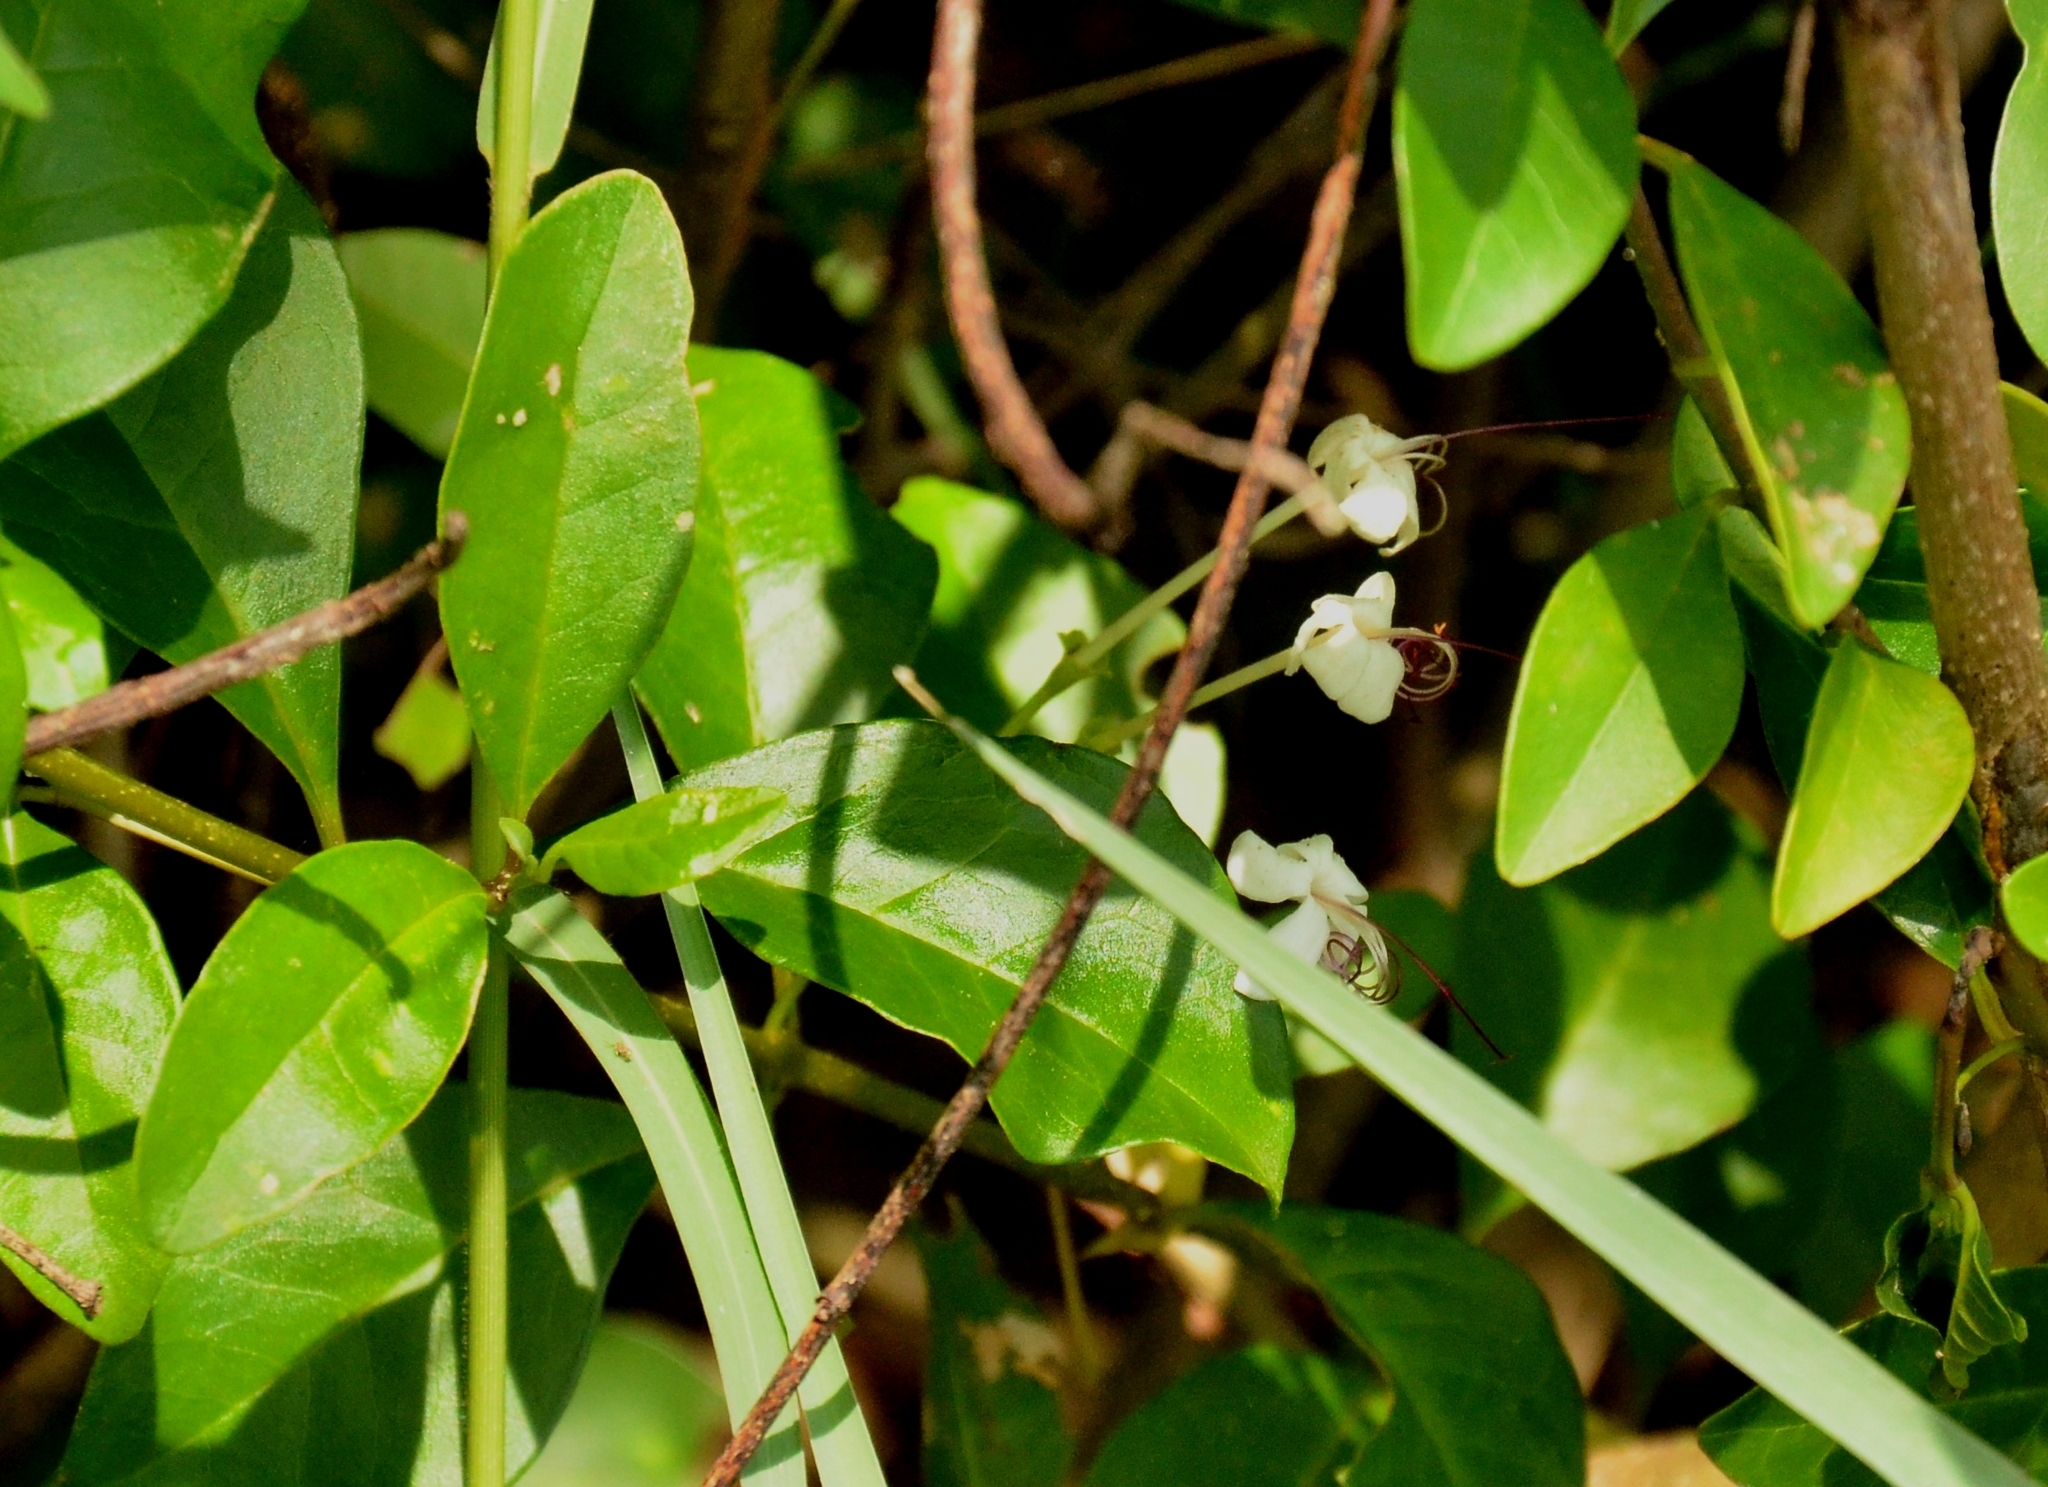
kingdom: Plantae
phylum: Tracheophyta
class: Magnoliopsida
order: Lamiales
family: Lamiaceae
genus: Volkameria
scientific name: Volkameria inermis
